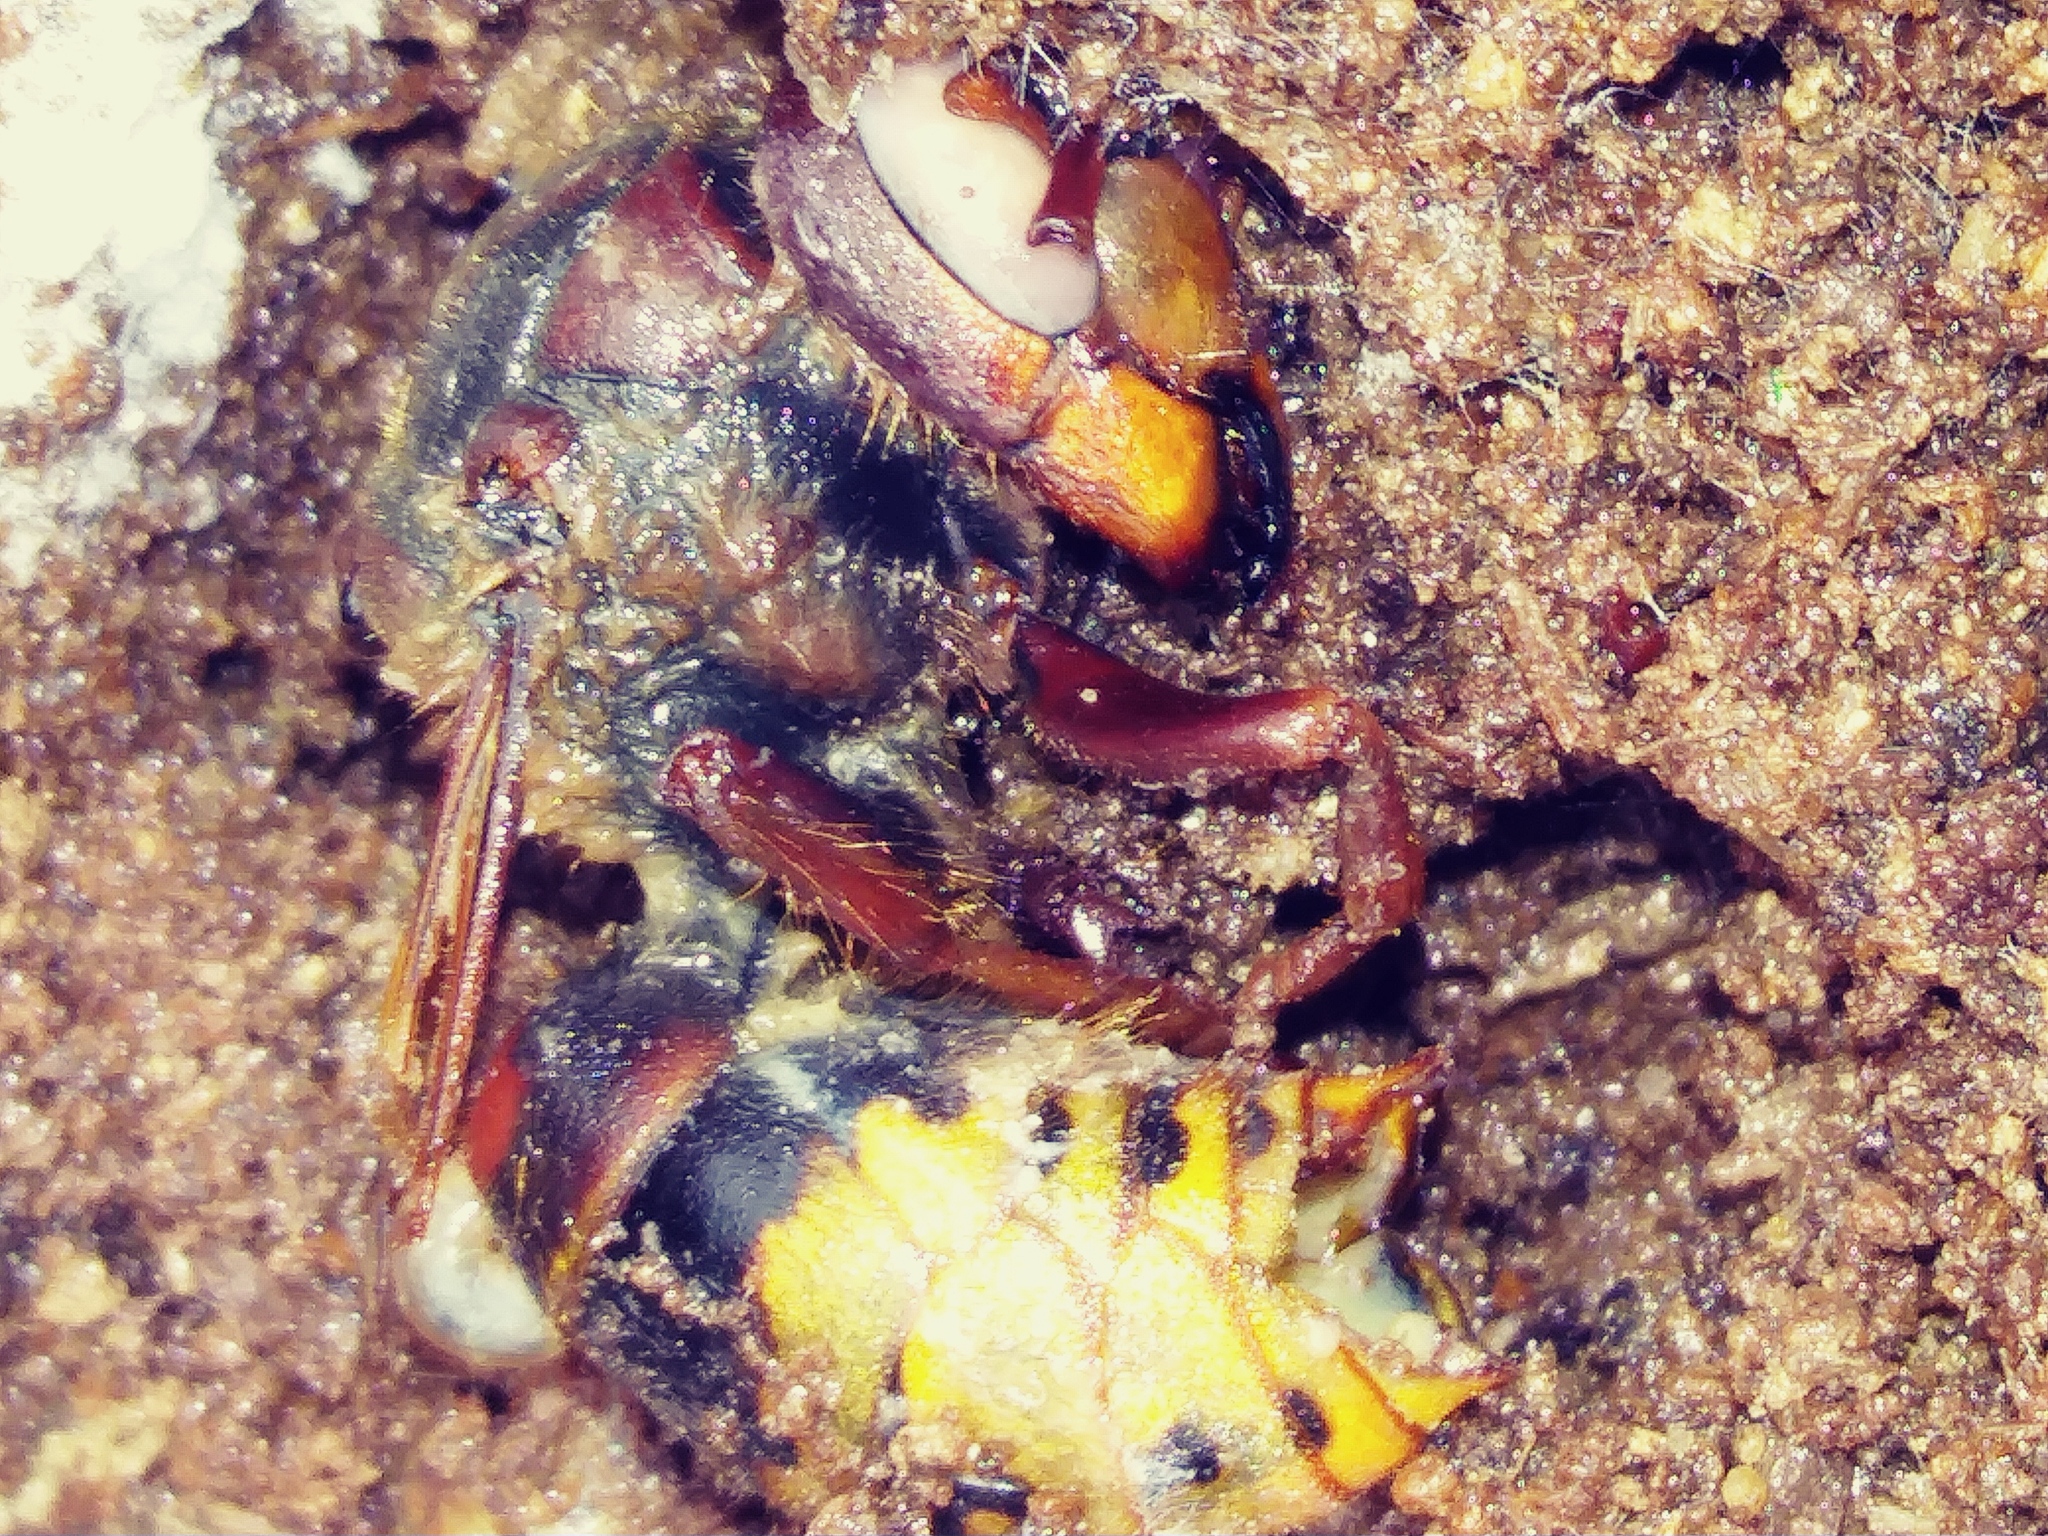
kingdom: Animalia
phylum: Arthropoda
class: Insecta
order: Hymenoptera
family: Vespidae
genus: Vespa
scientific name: Vespa crabro
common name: Hornet
